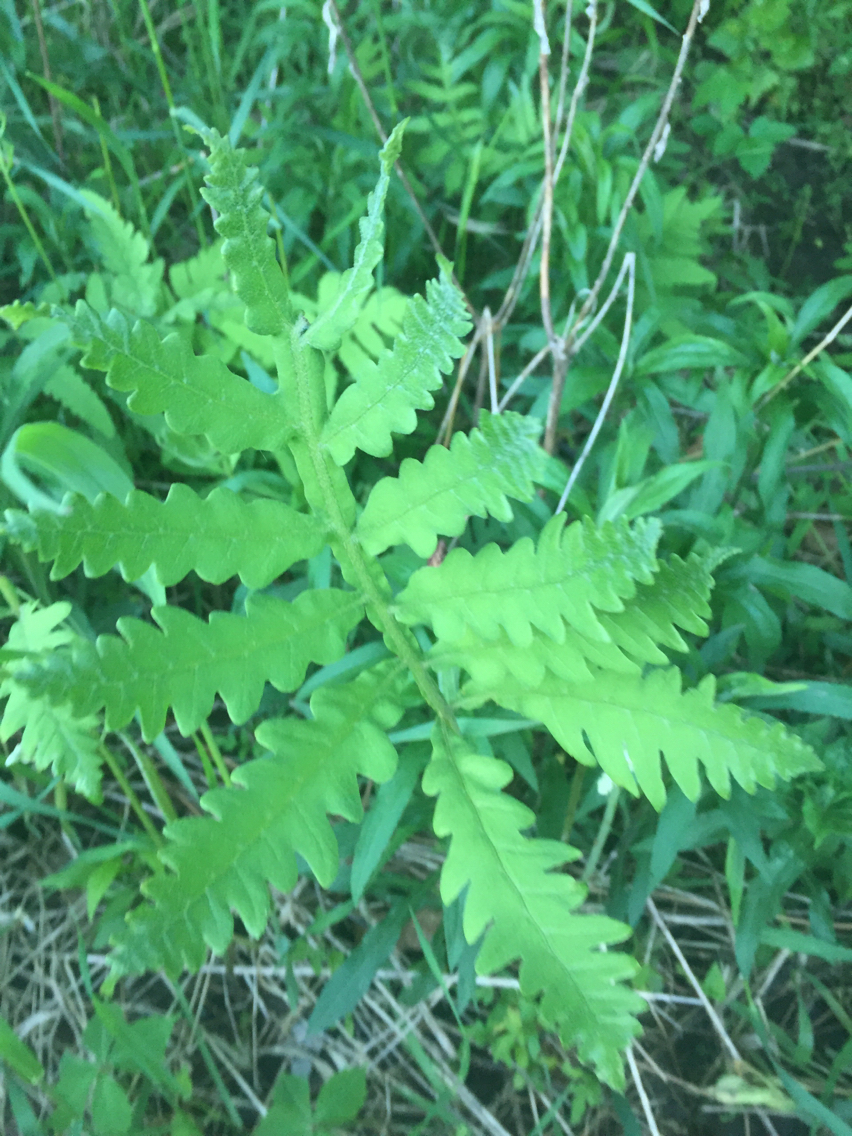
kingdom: Plantae
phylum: Tracheophyta
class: Polypodiopsida
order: Polypodiales
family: Onocleaceae
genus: Onoclea
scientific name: Onoclea sensibilis
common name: Sensitive fern
